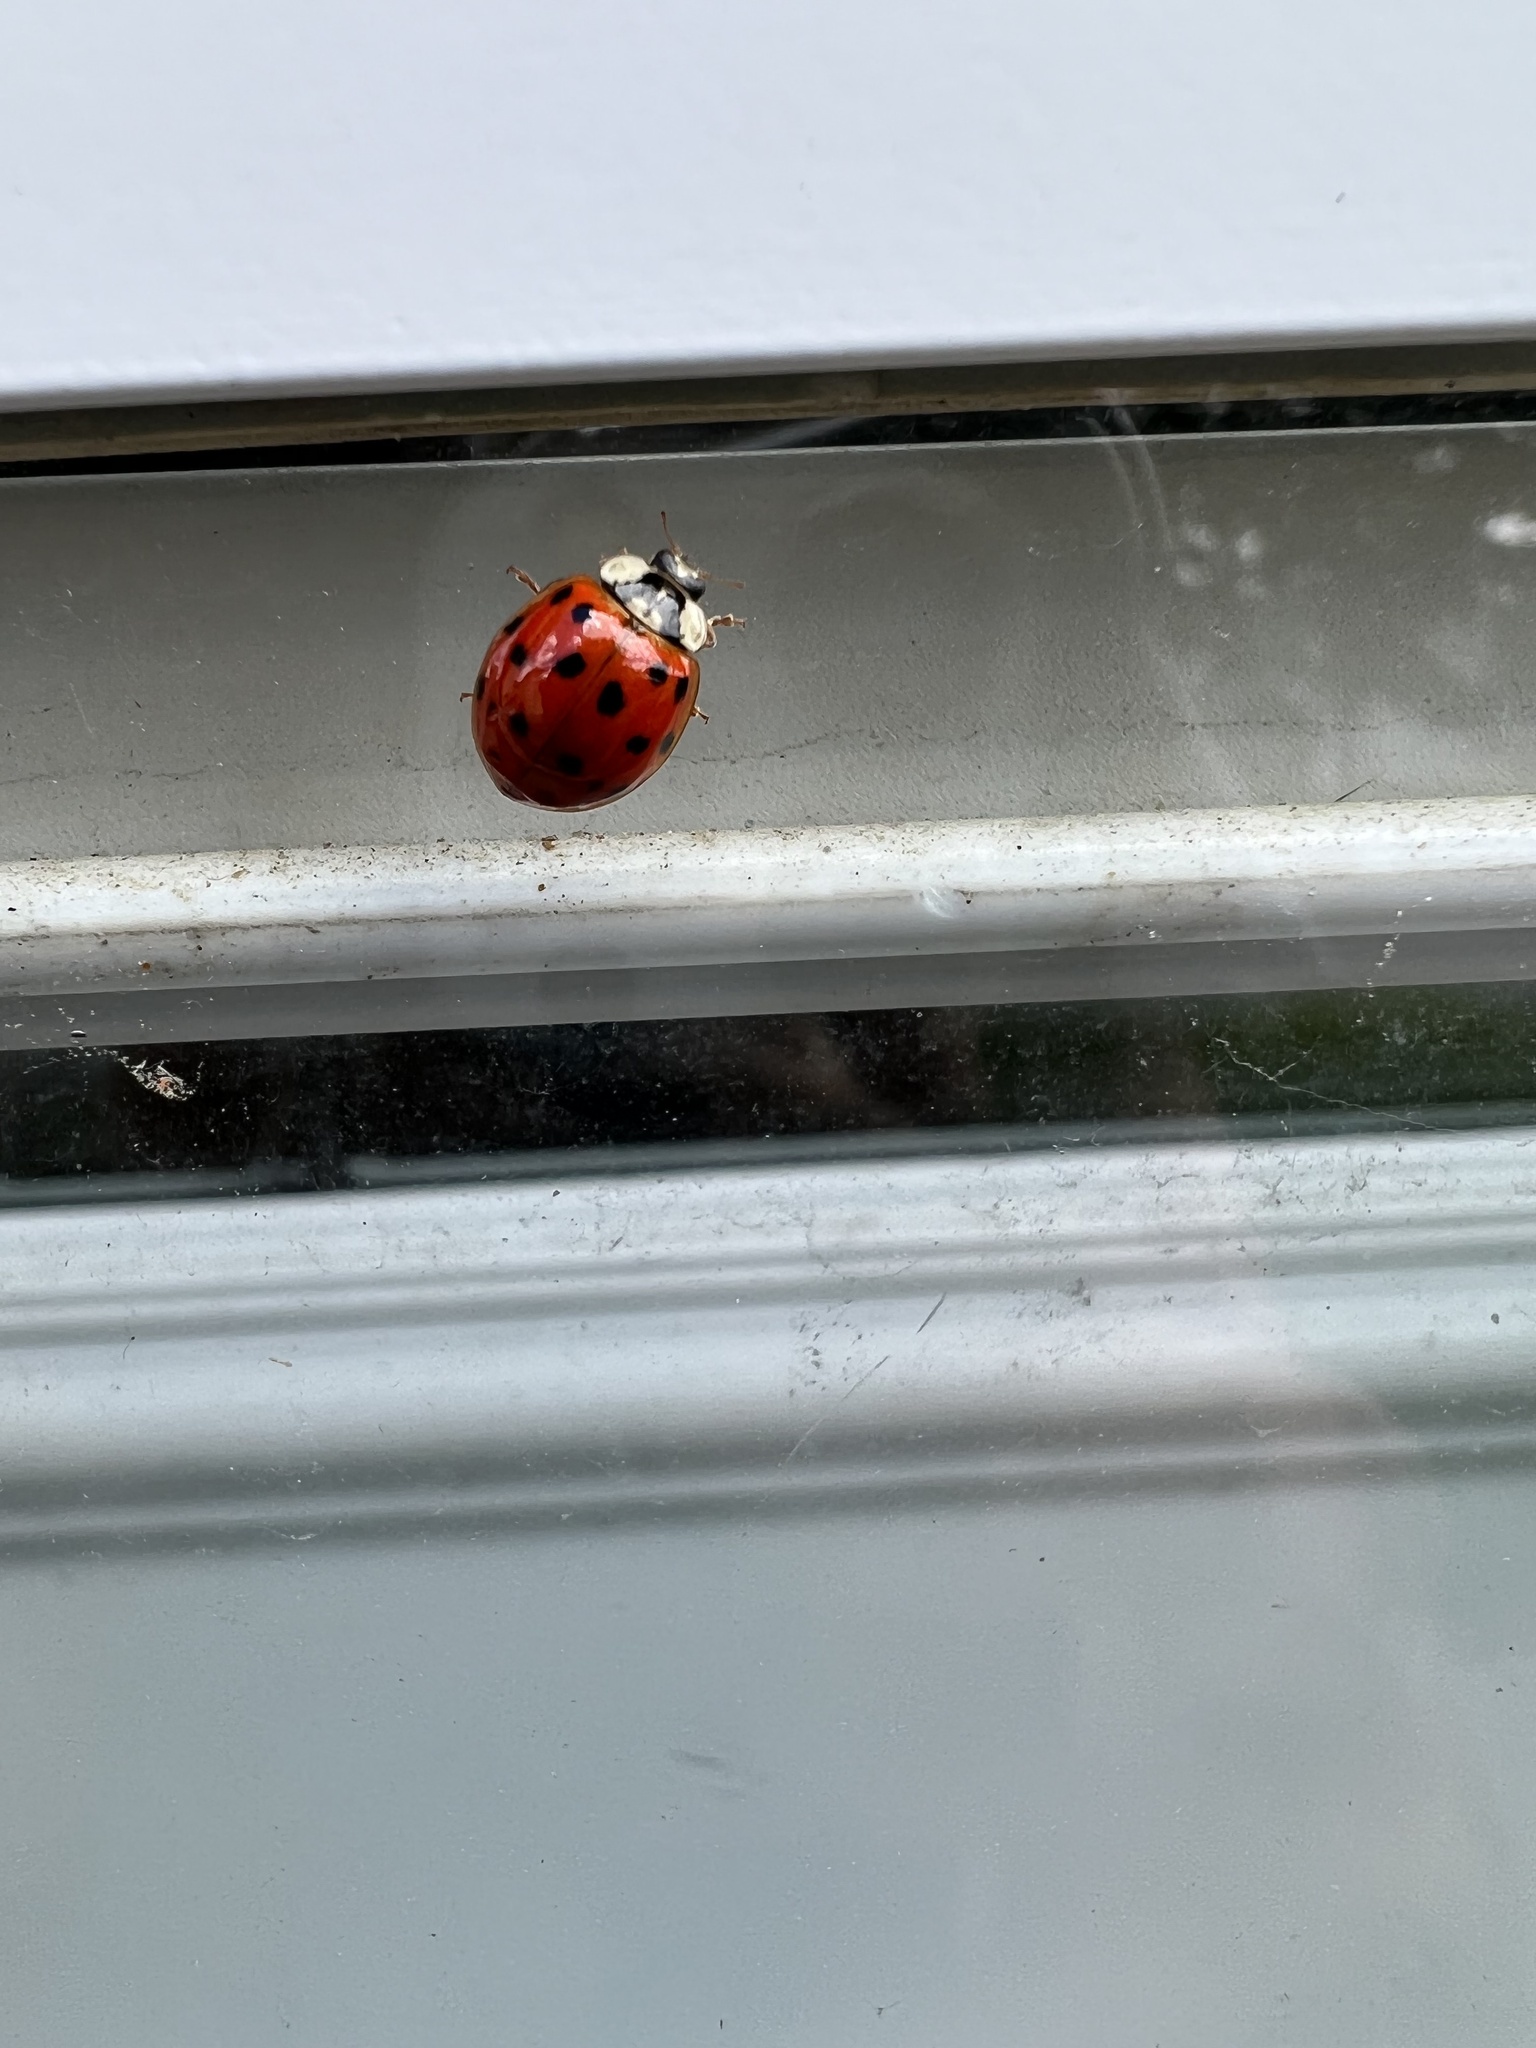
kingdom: Animalia
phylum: Arthropoda
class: Insecta
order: Coleoptera
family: Coccinellidae
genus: Harmonia
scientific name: Harmonia axyridis
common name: Harlequin ladybird
